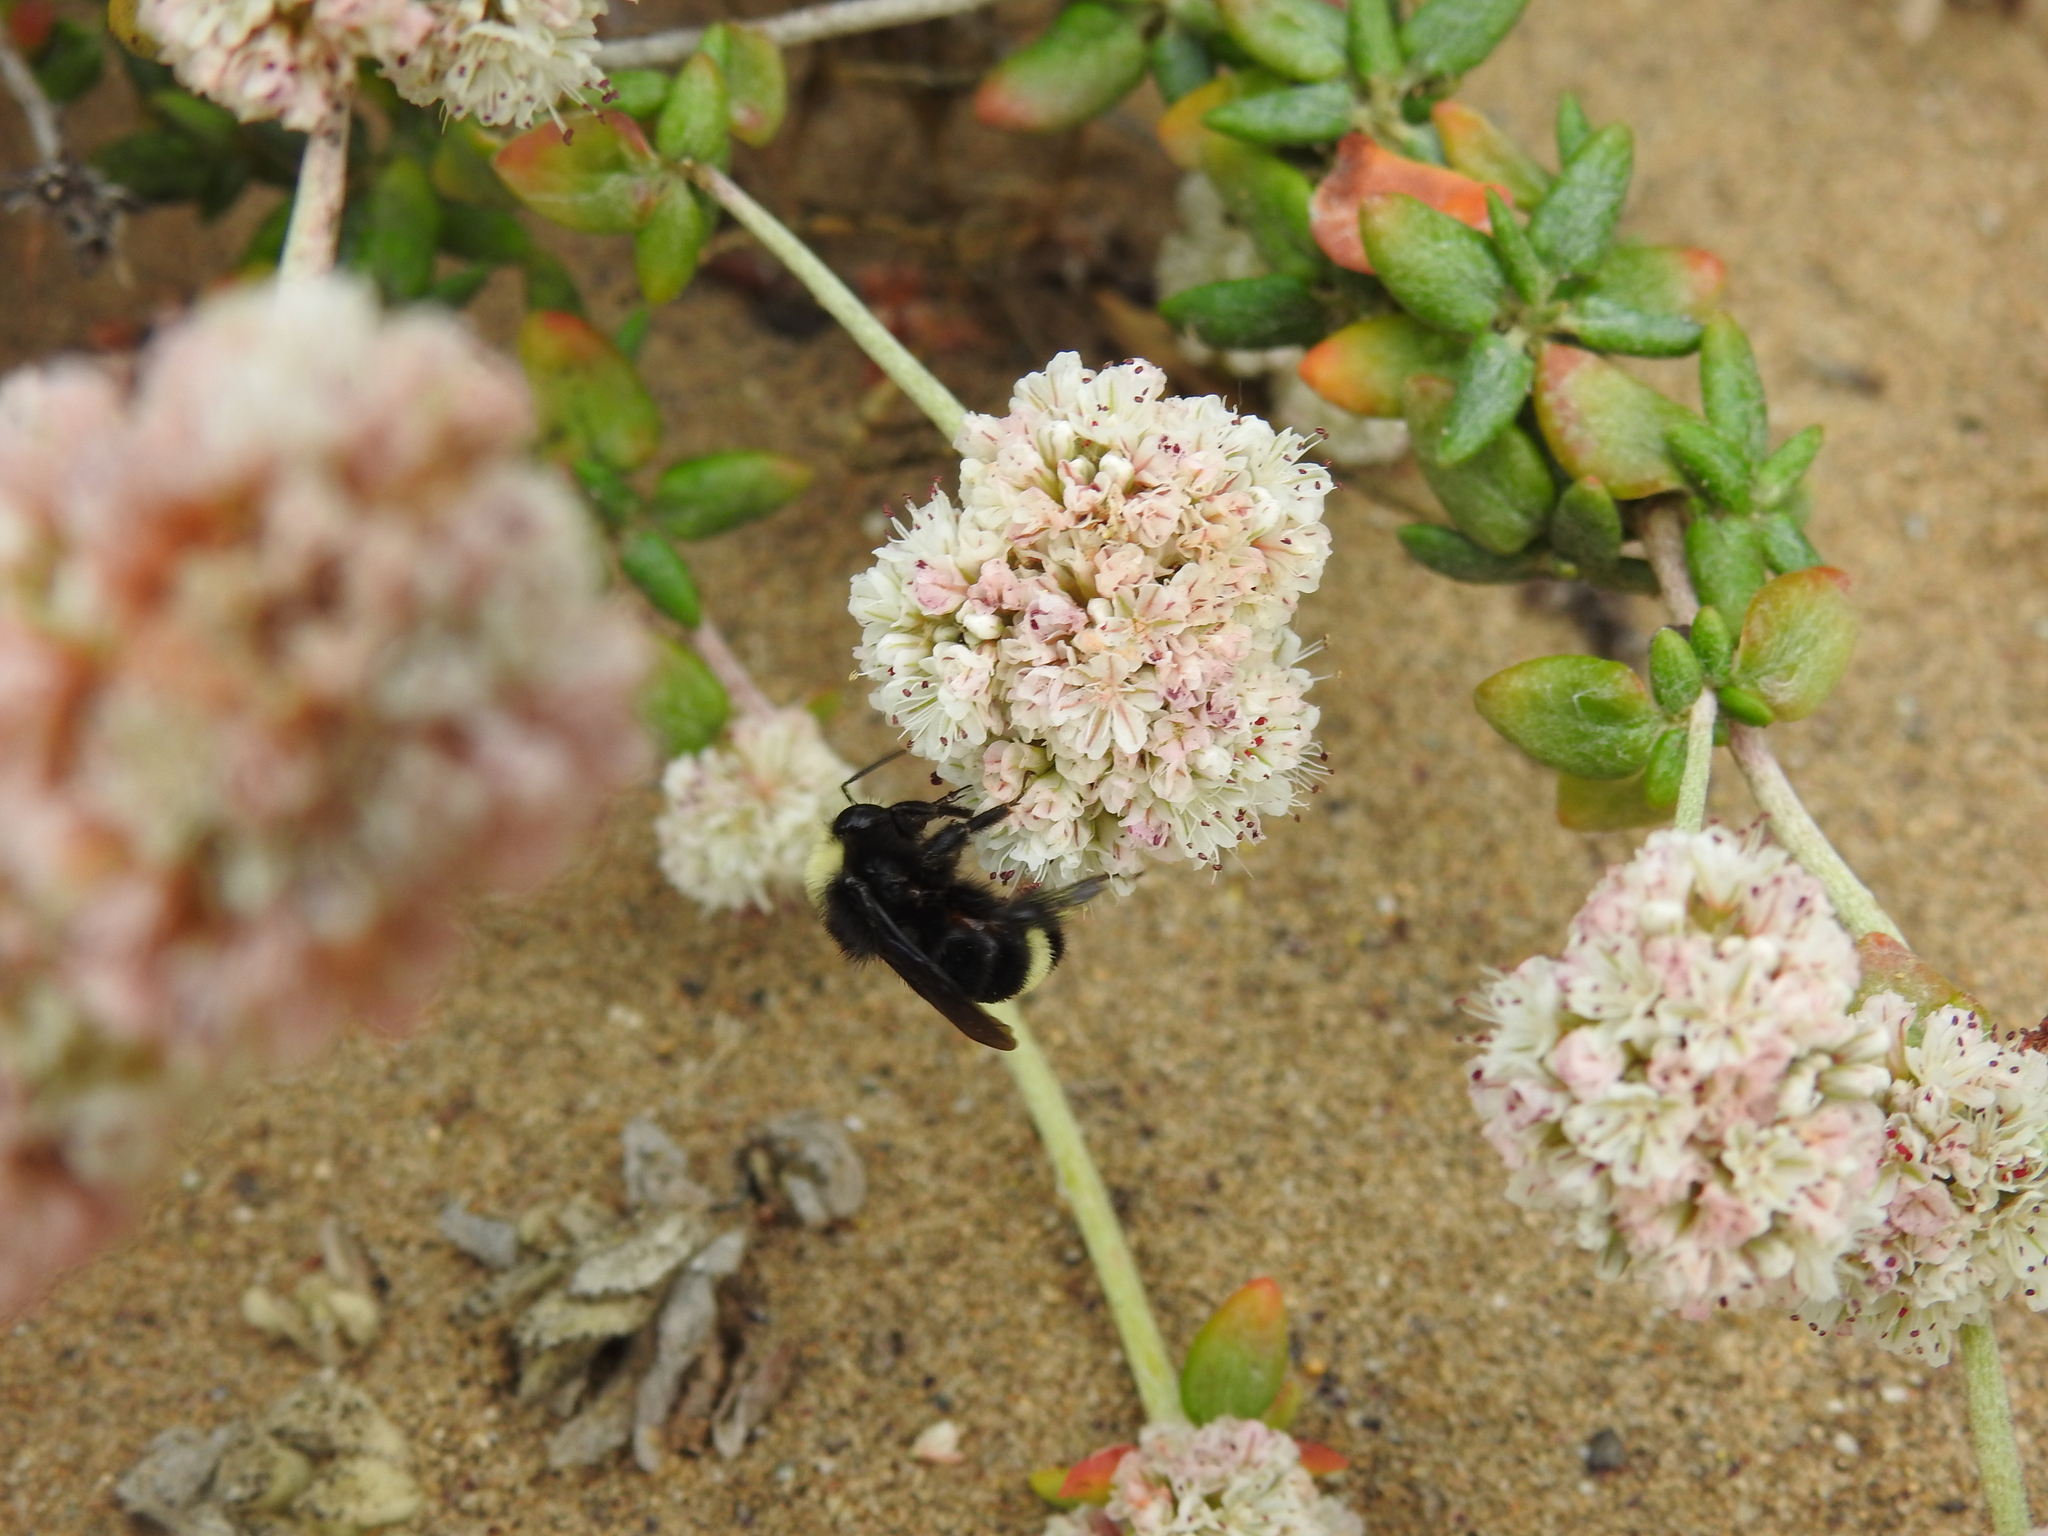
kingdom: Animalia
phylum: Arthropoda
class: Insecta
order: Hymenoptera
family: Apidae
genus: Bombus
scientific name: Bombus vosnesenskii
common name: Vosnesensky bumble bee
